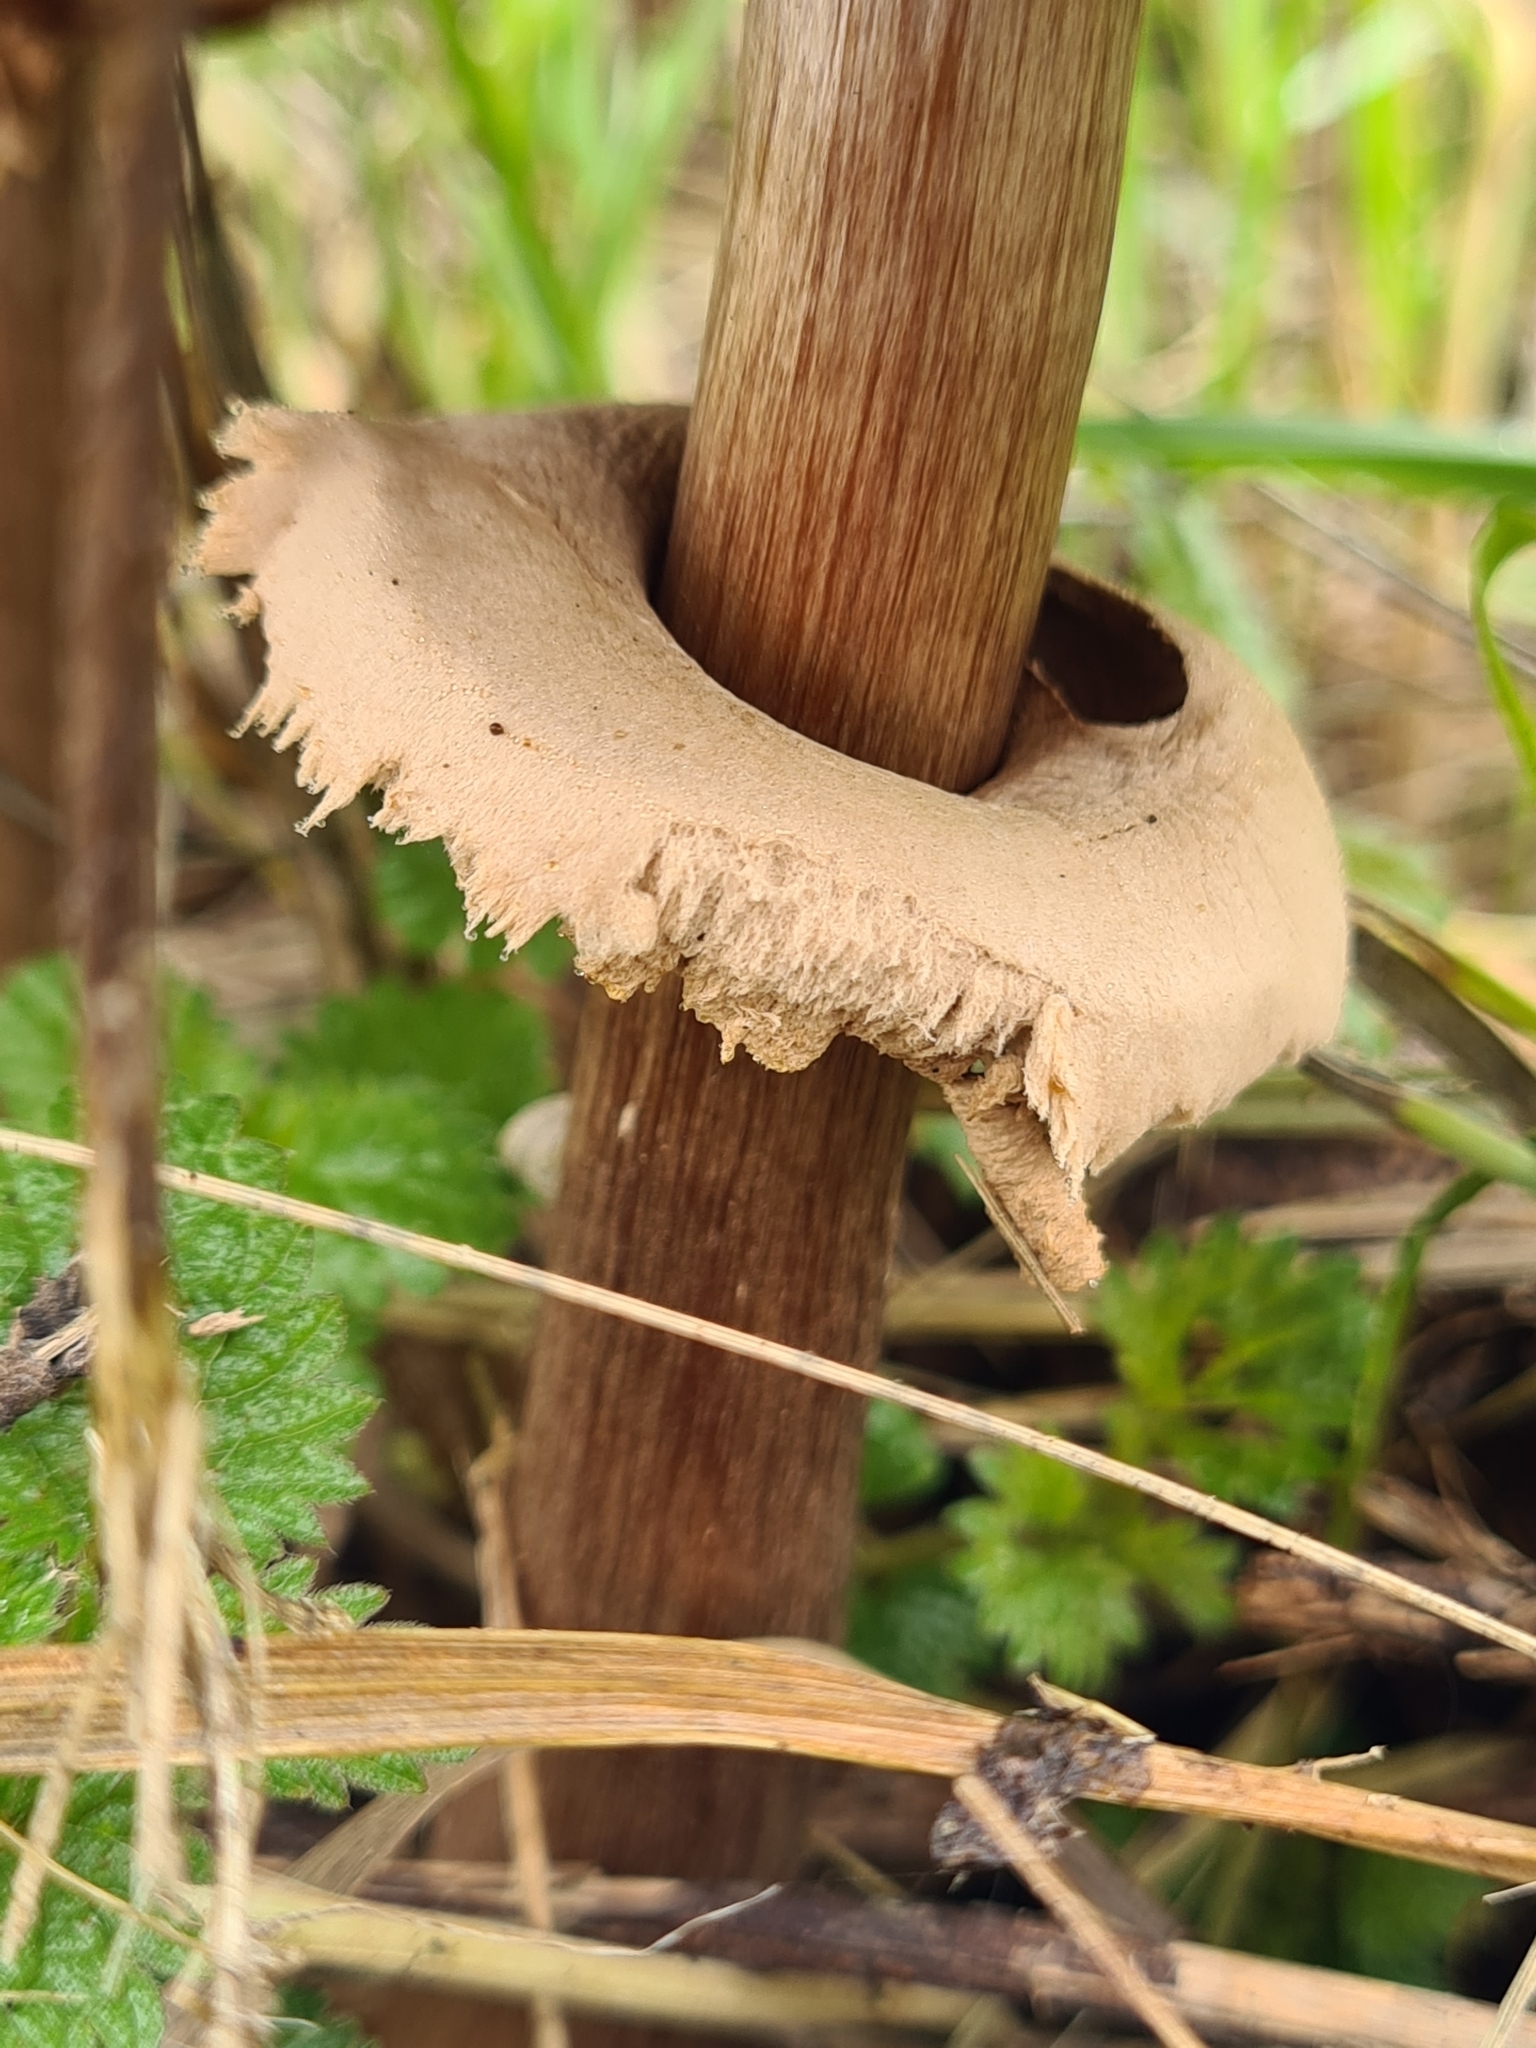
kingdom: Fungi
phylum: Basidiomycota
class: Agaricomycetes
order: Agaricales
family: Agaricaceae
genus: Macrolepiota
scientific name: Macrolepiota procera
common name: Parasol
